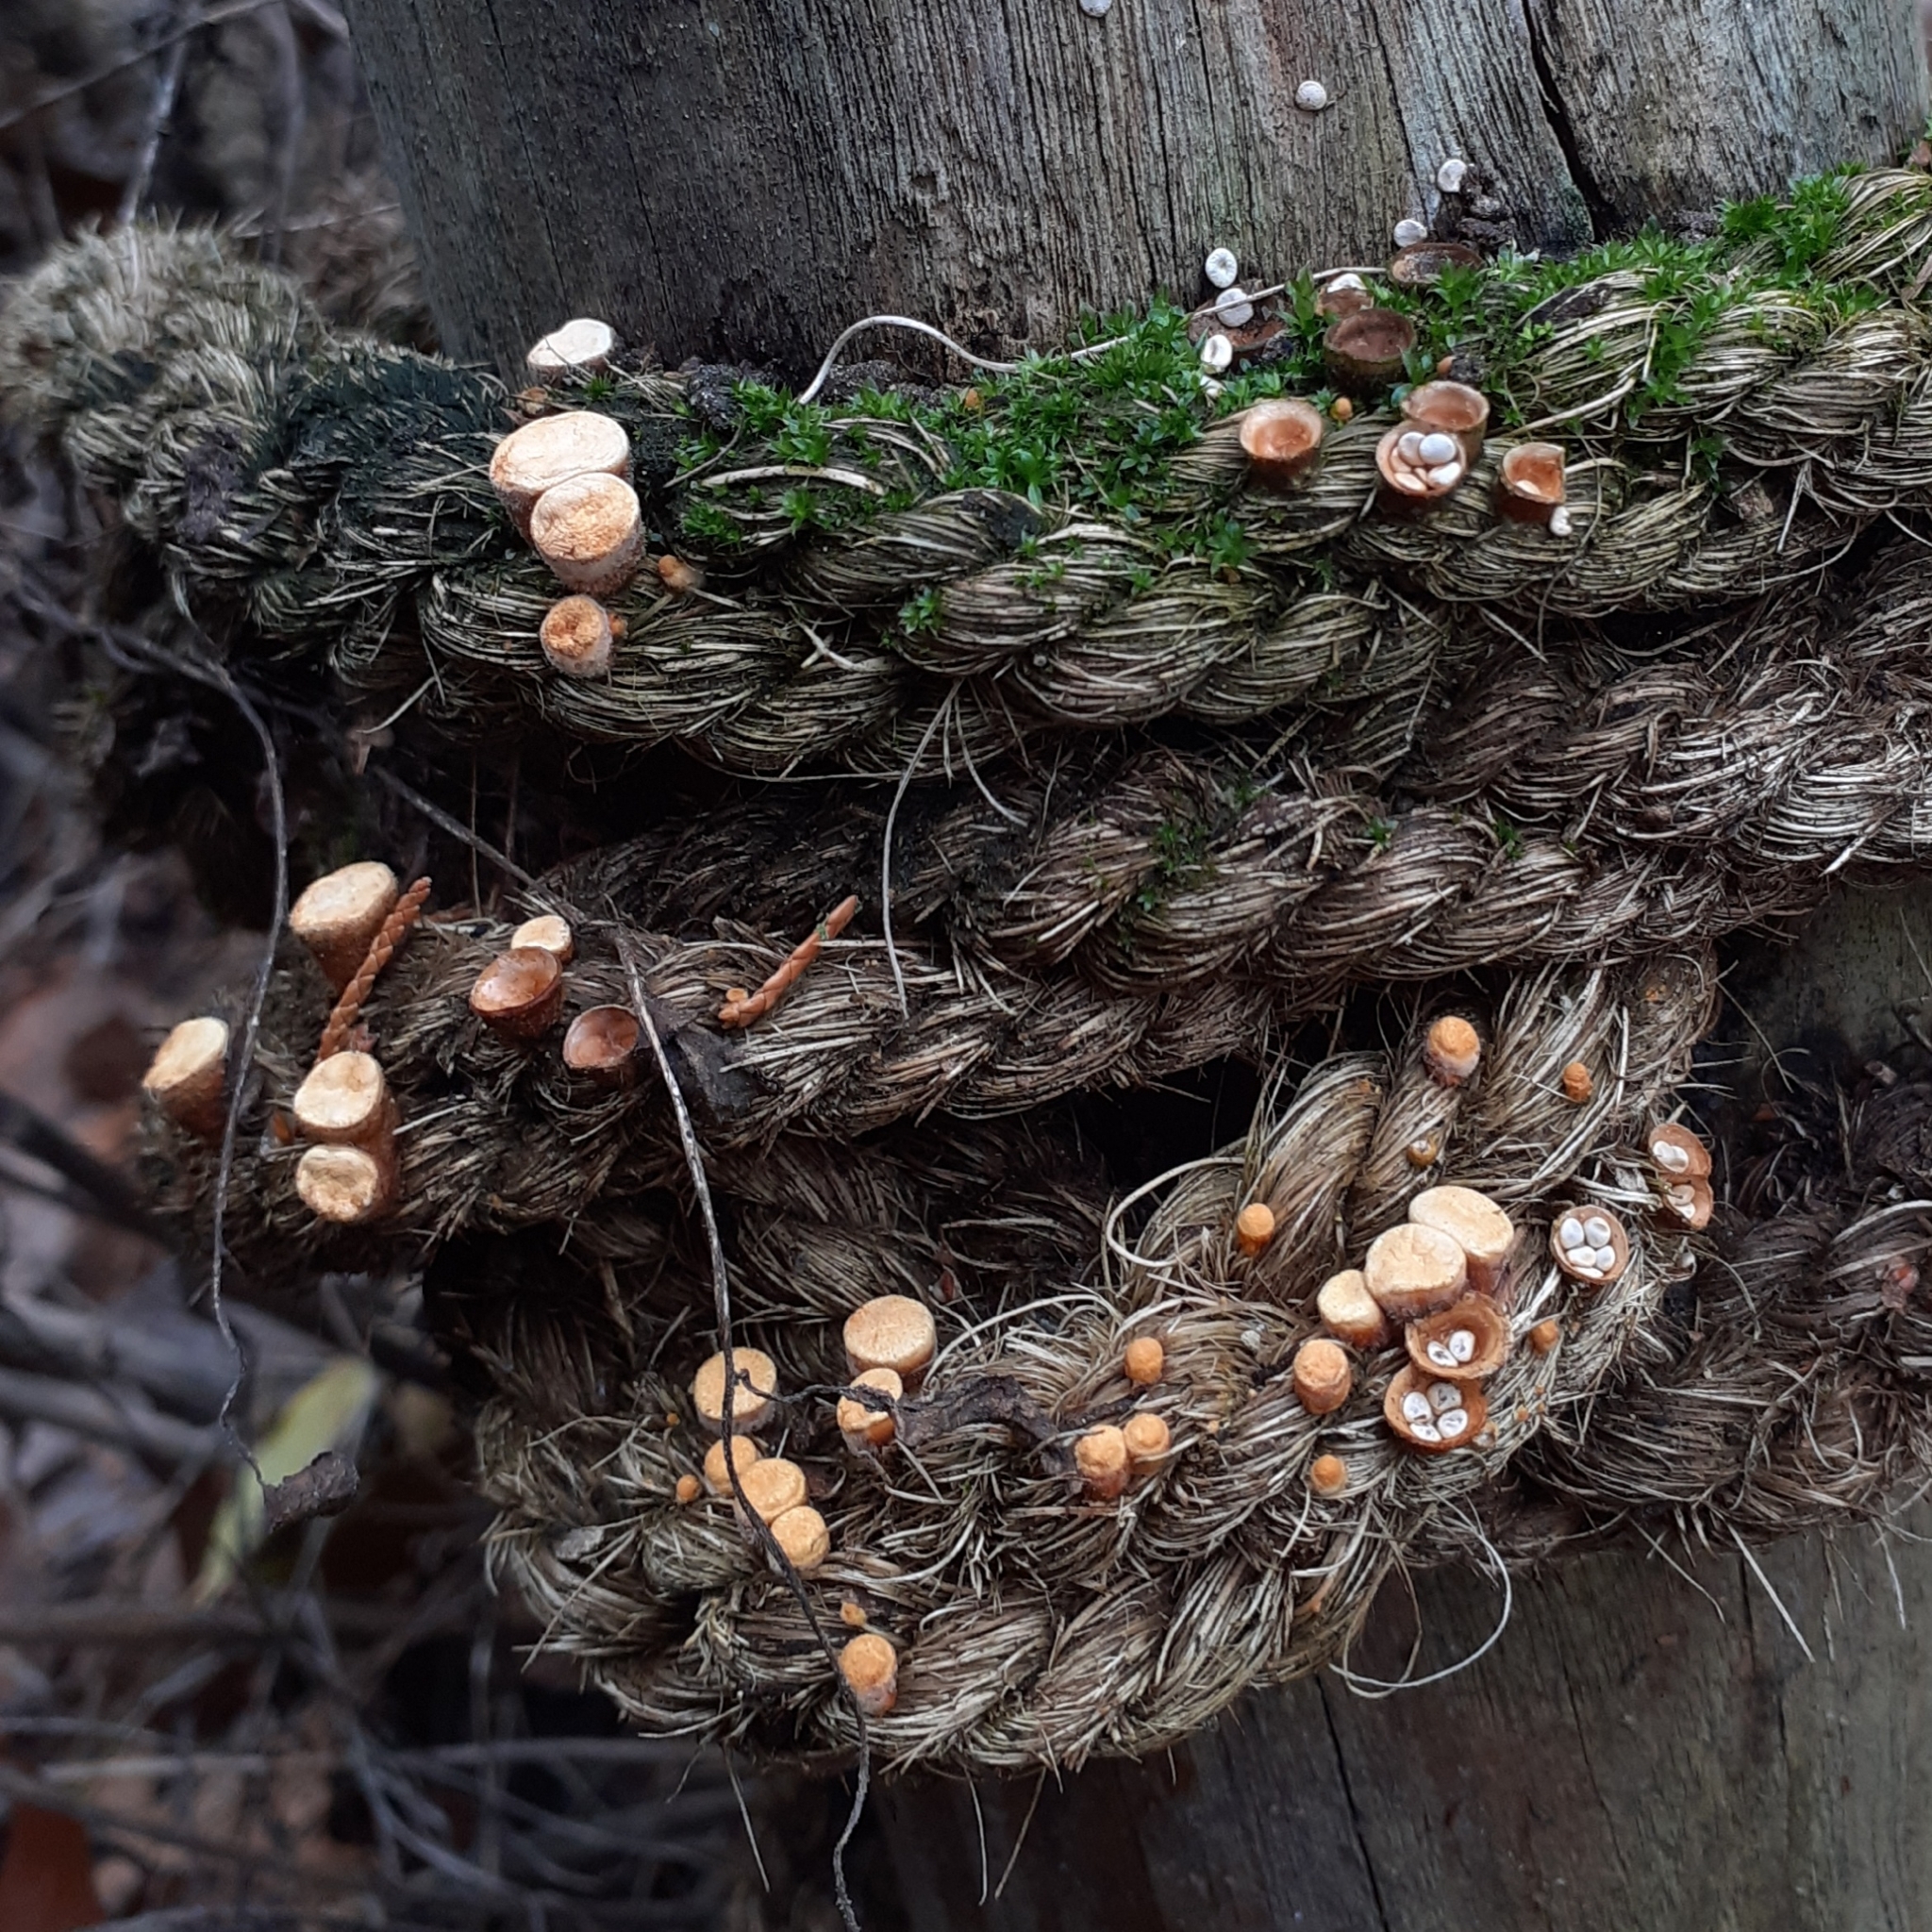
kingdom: Fungi
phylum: Basidiomycota
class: Agaricomycetes
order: Agaricales
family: Nidulariaceae
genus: Crucibulum
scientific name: Crucibulum laeve
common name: Common bird's nest
